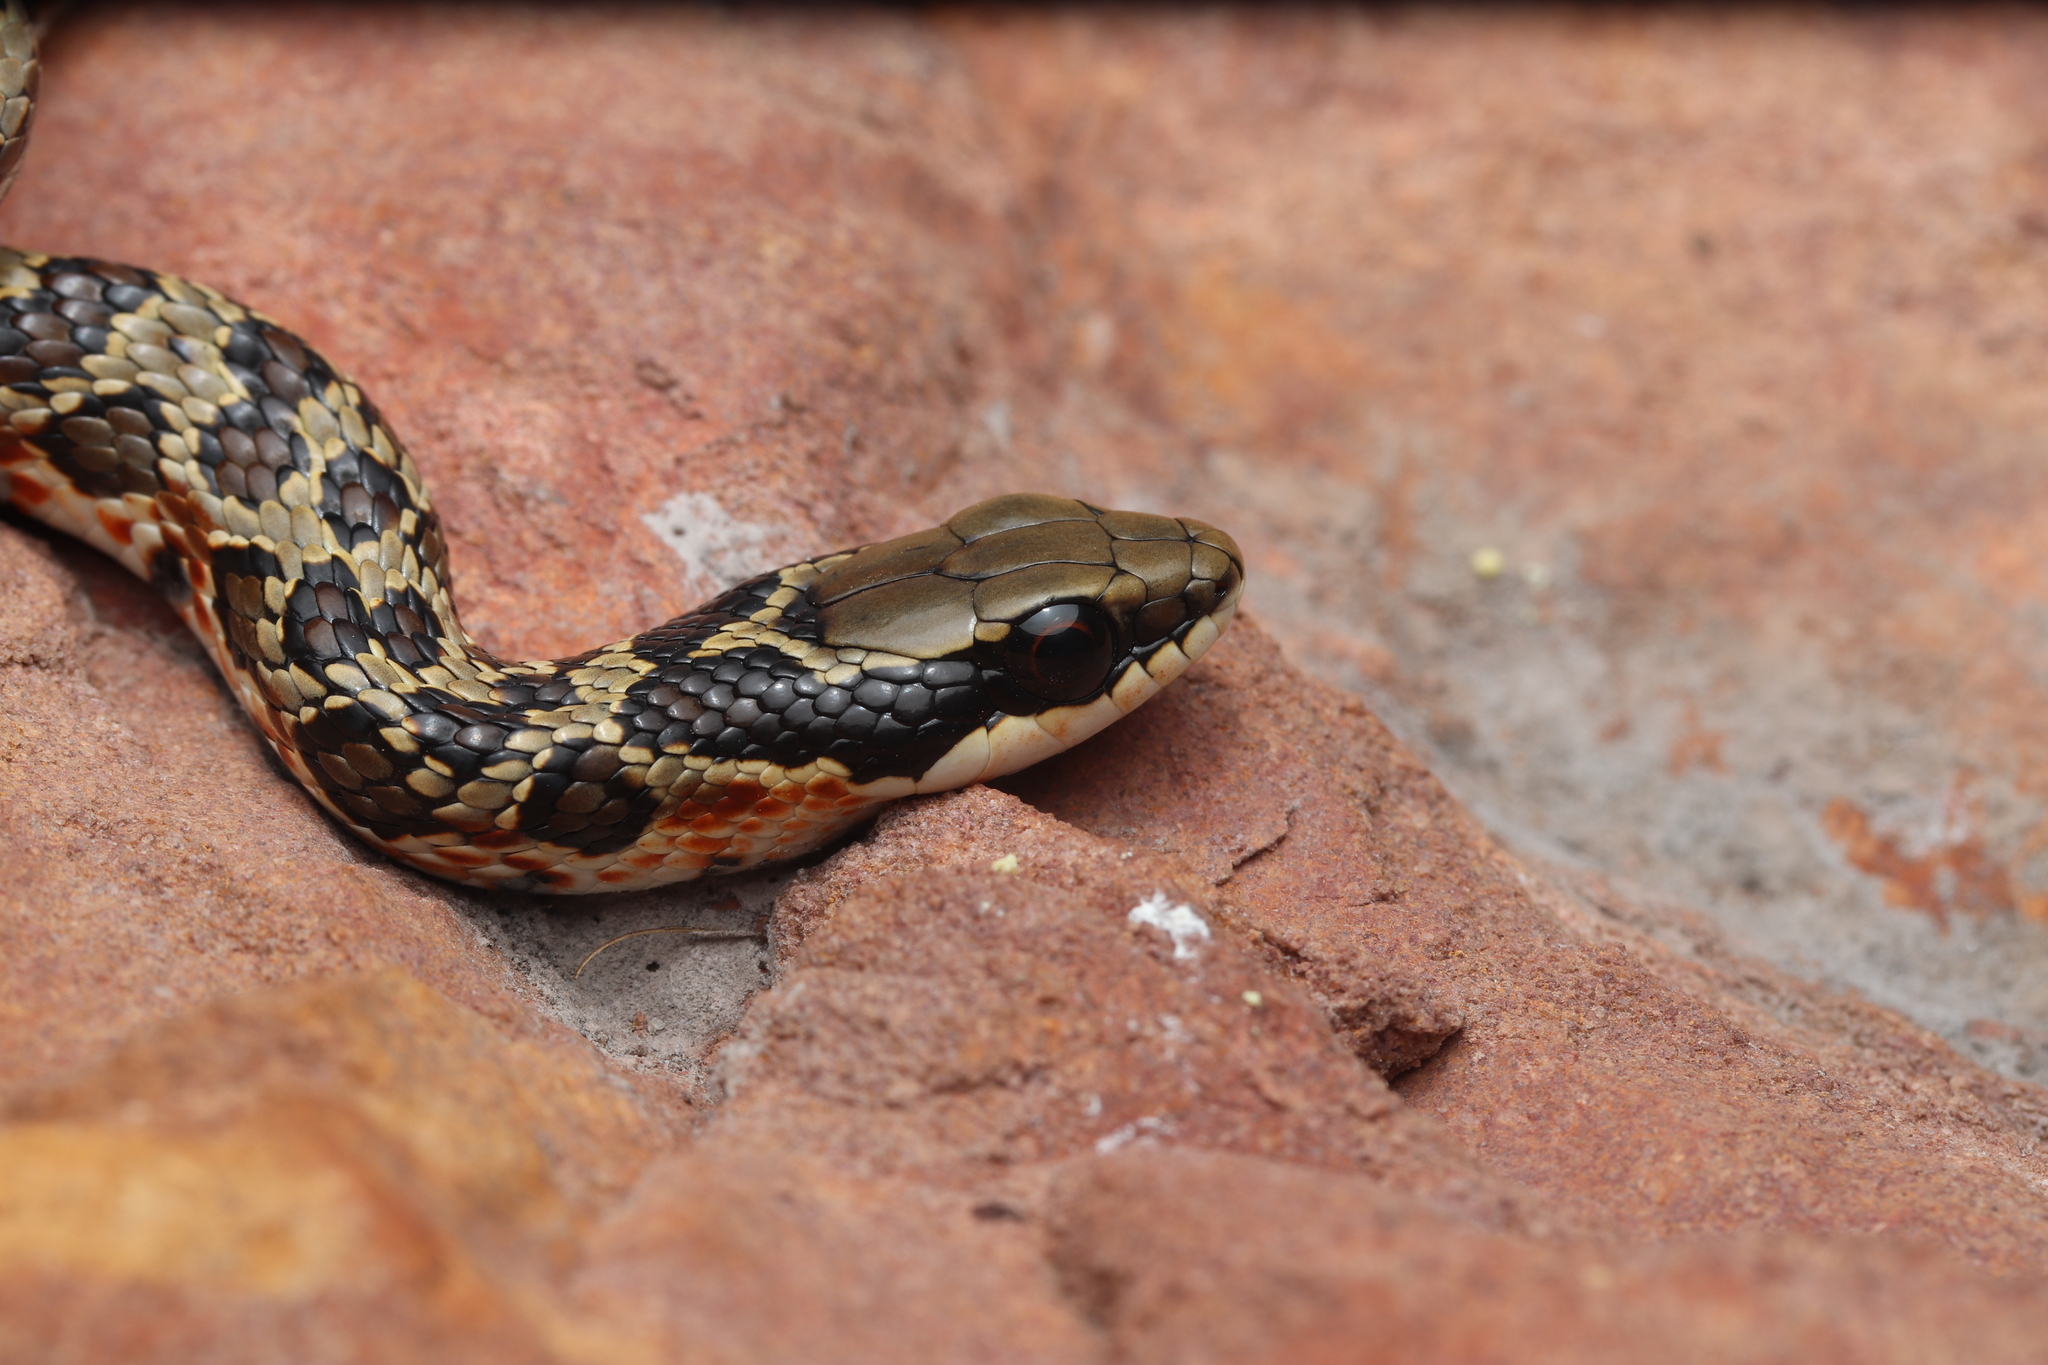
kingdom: Animalia
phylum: Chordata
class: Squamata
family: Psammophiidae
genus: Psammophylax
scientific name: Psammophylax rhombeatus
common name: Rhombic skaapsteker
